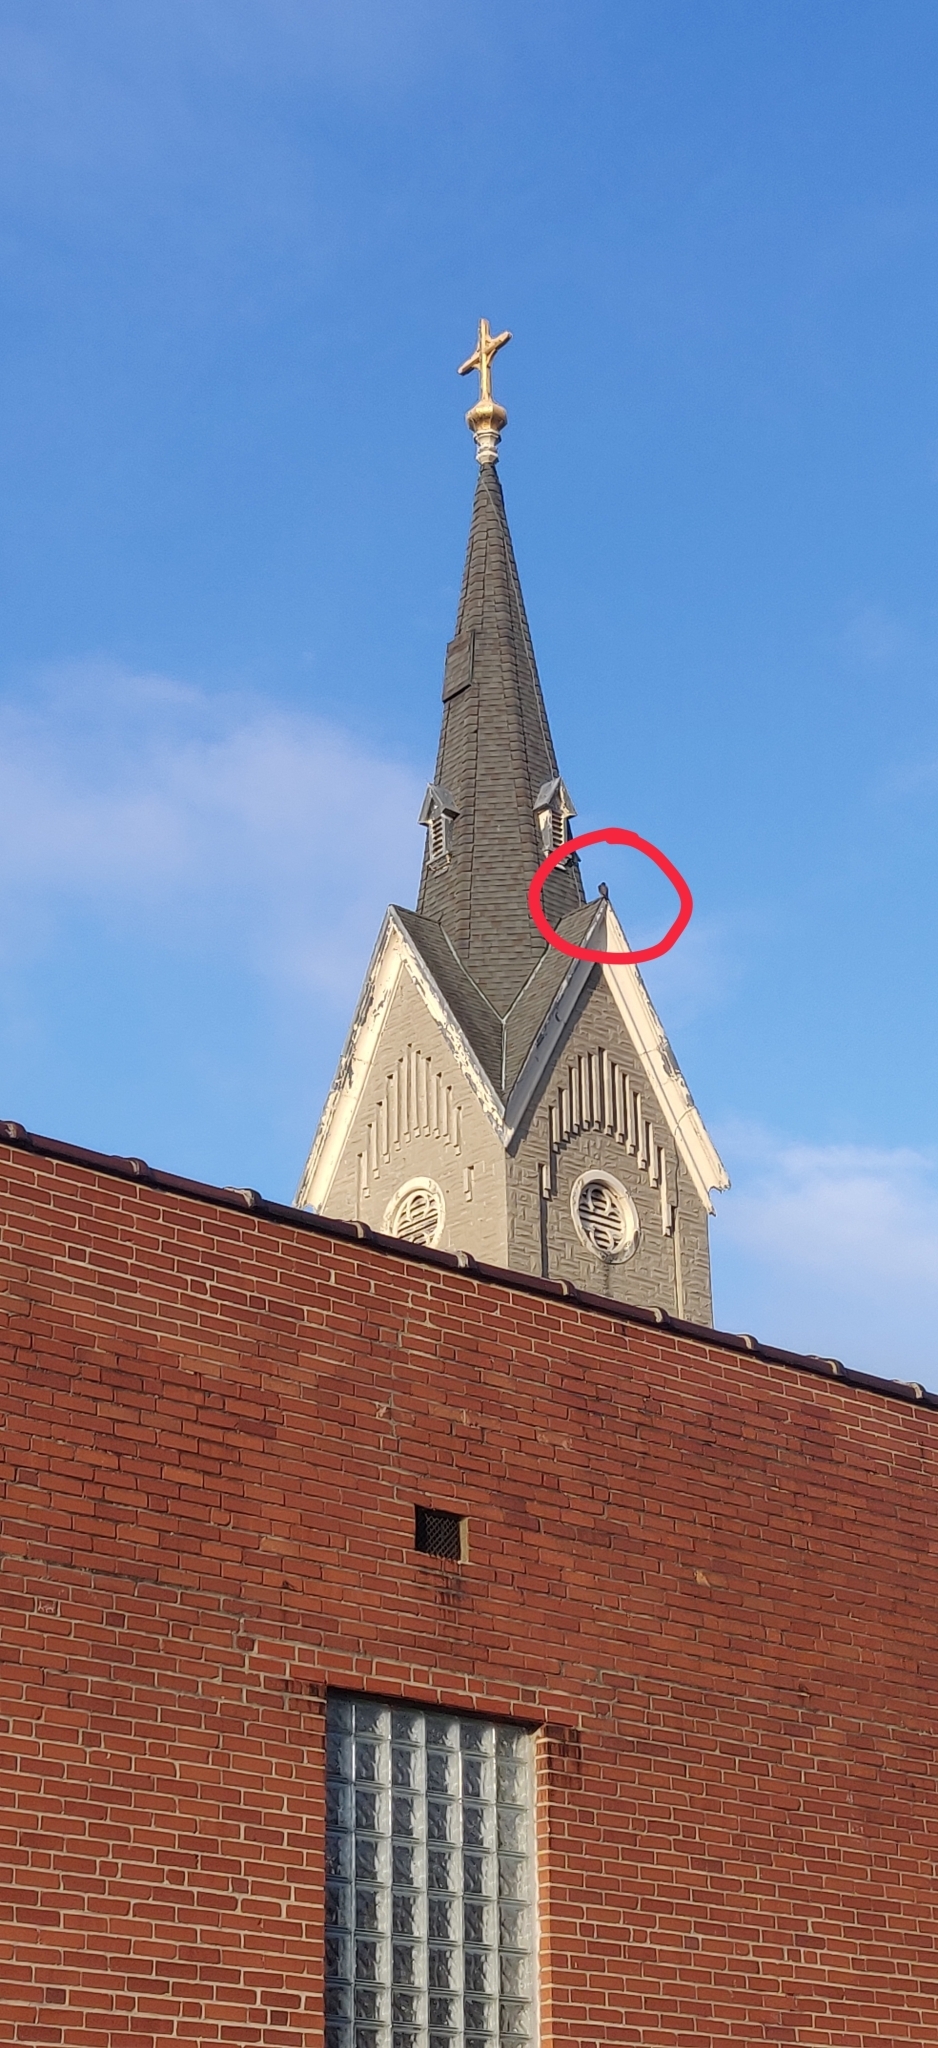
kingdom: Animalia
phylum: Chordata
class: Aves
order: Falconiformes
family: Falconidae
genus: Falco
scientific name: Falco peregrinus
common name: Peregrine falcon
